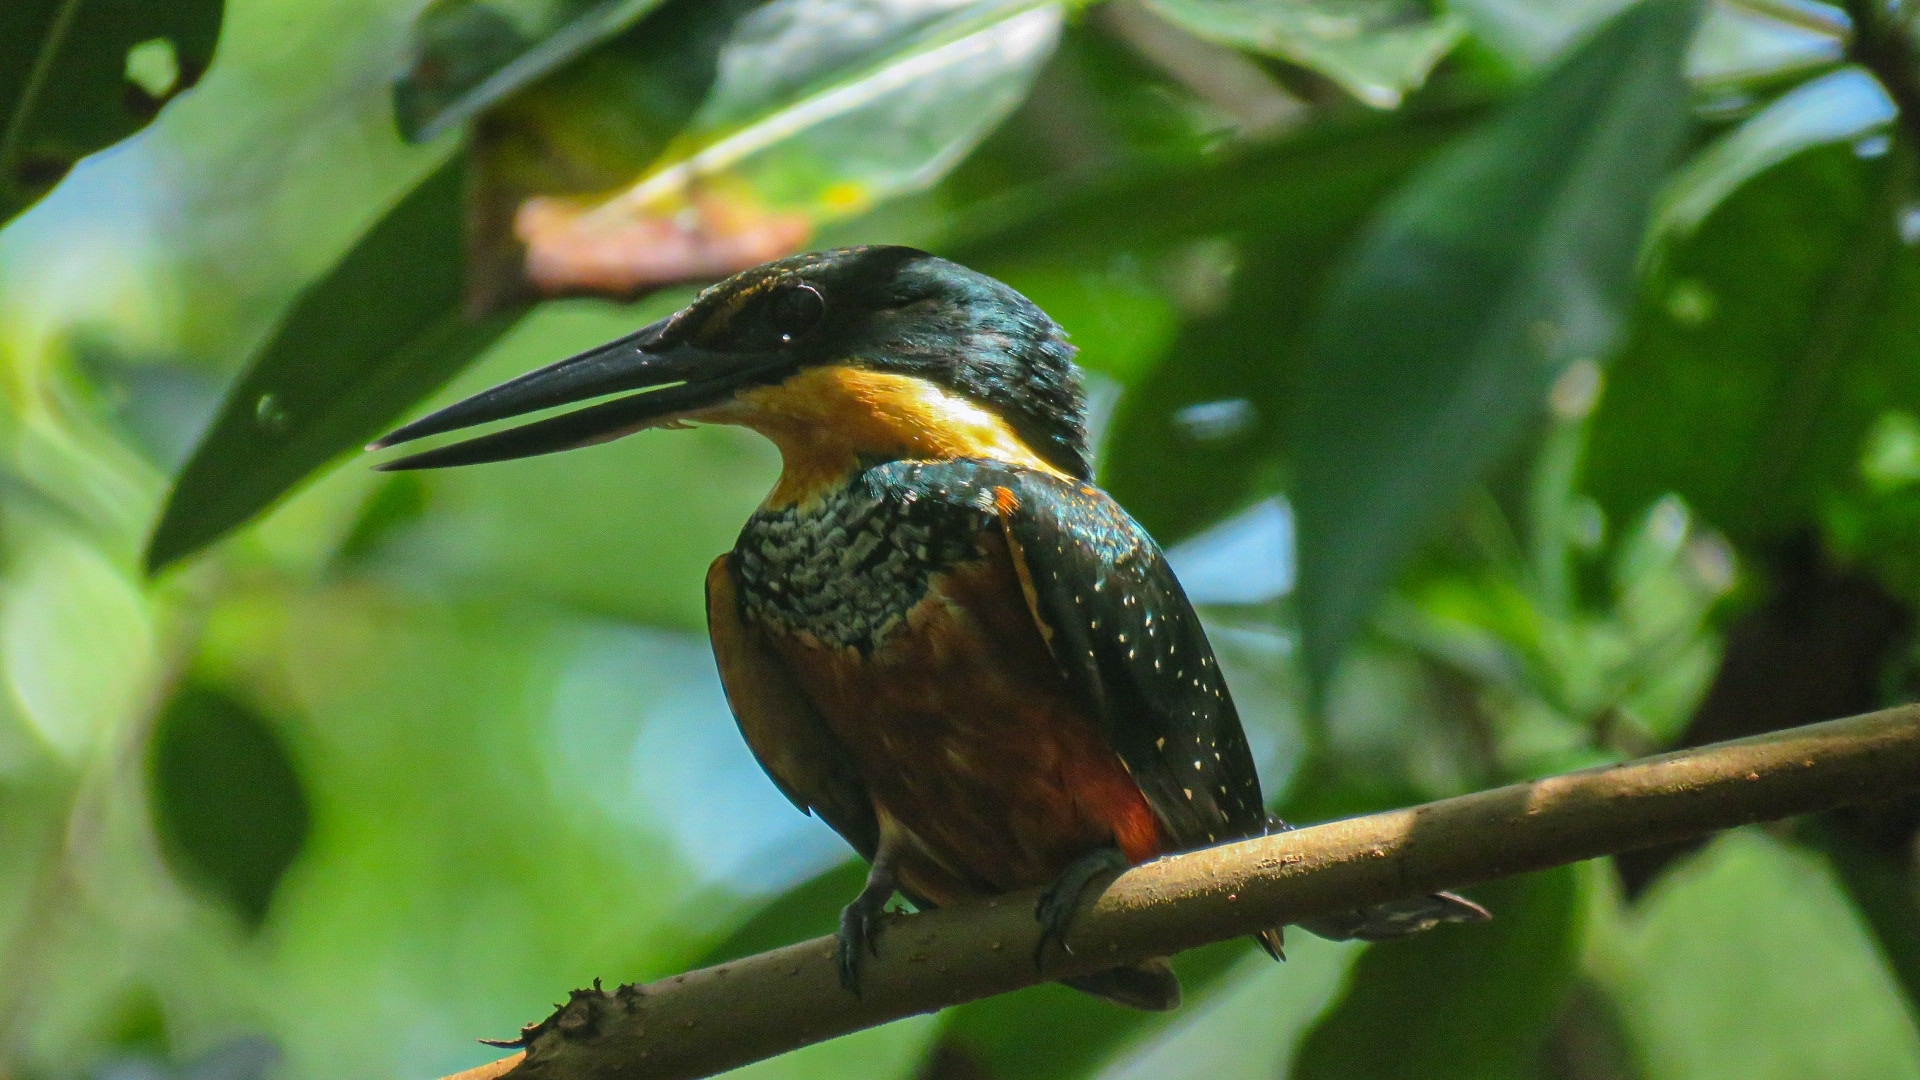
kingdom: Animalia
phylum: Chordata
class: Aves
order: Coraciiformes
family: Alcedinidae
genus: Chloroceryle
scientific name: Chloroceryle inda
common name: Green-and-rufous kingfisher
